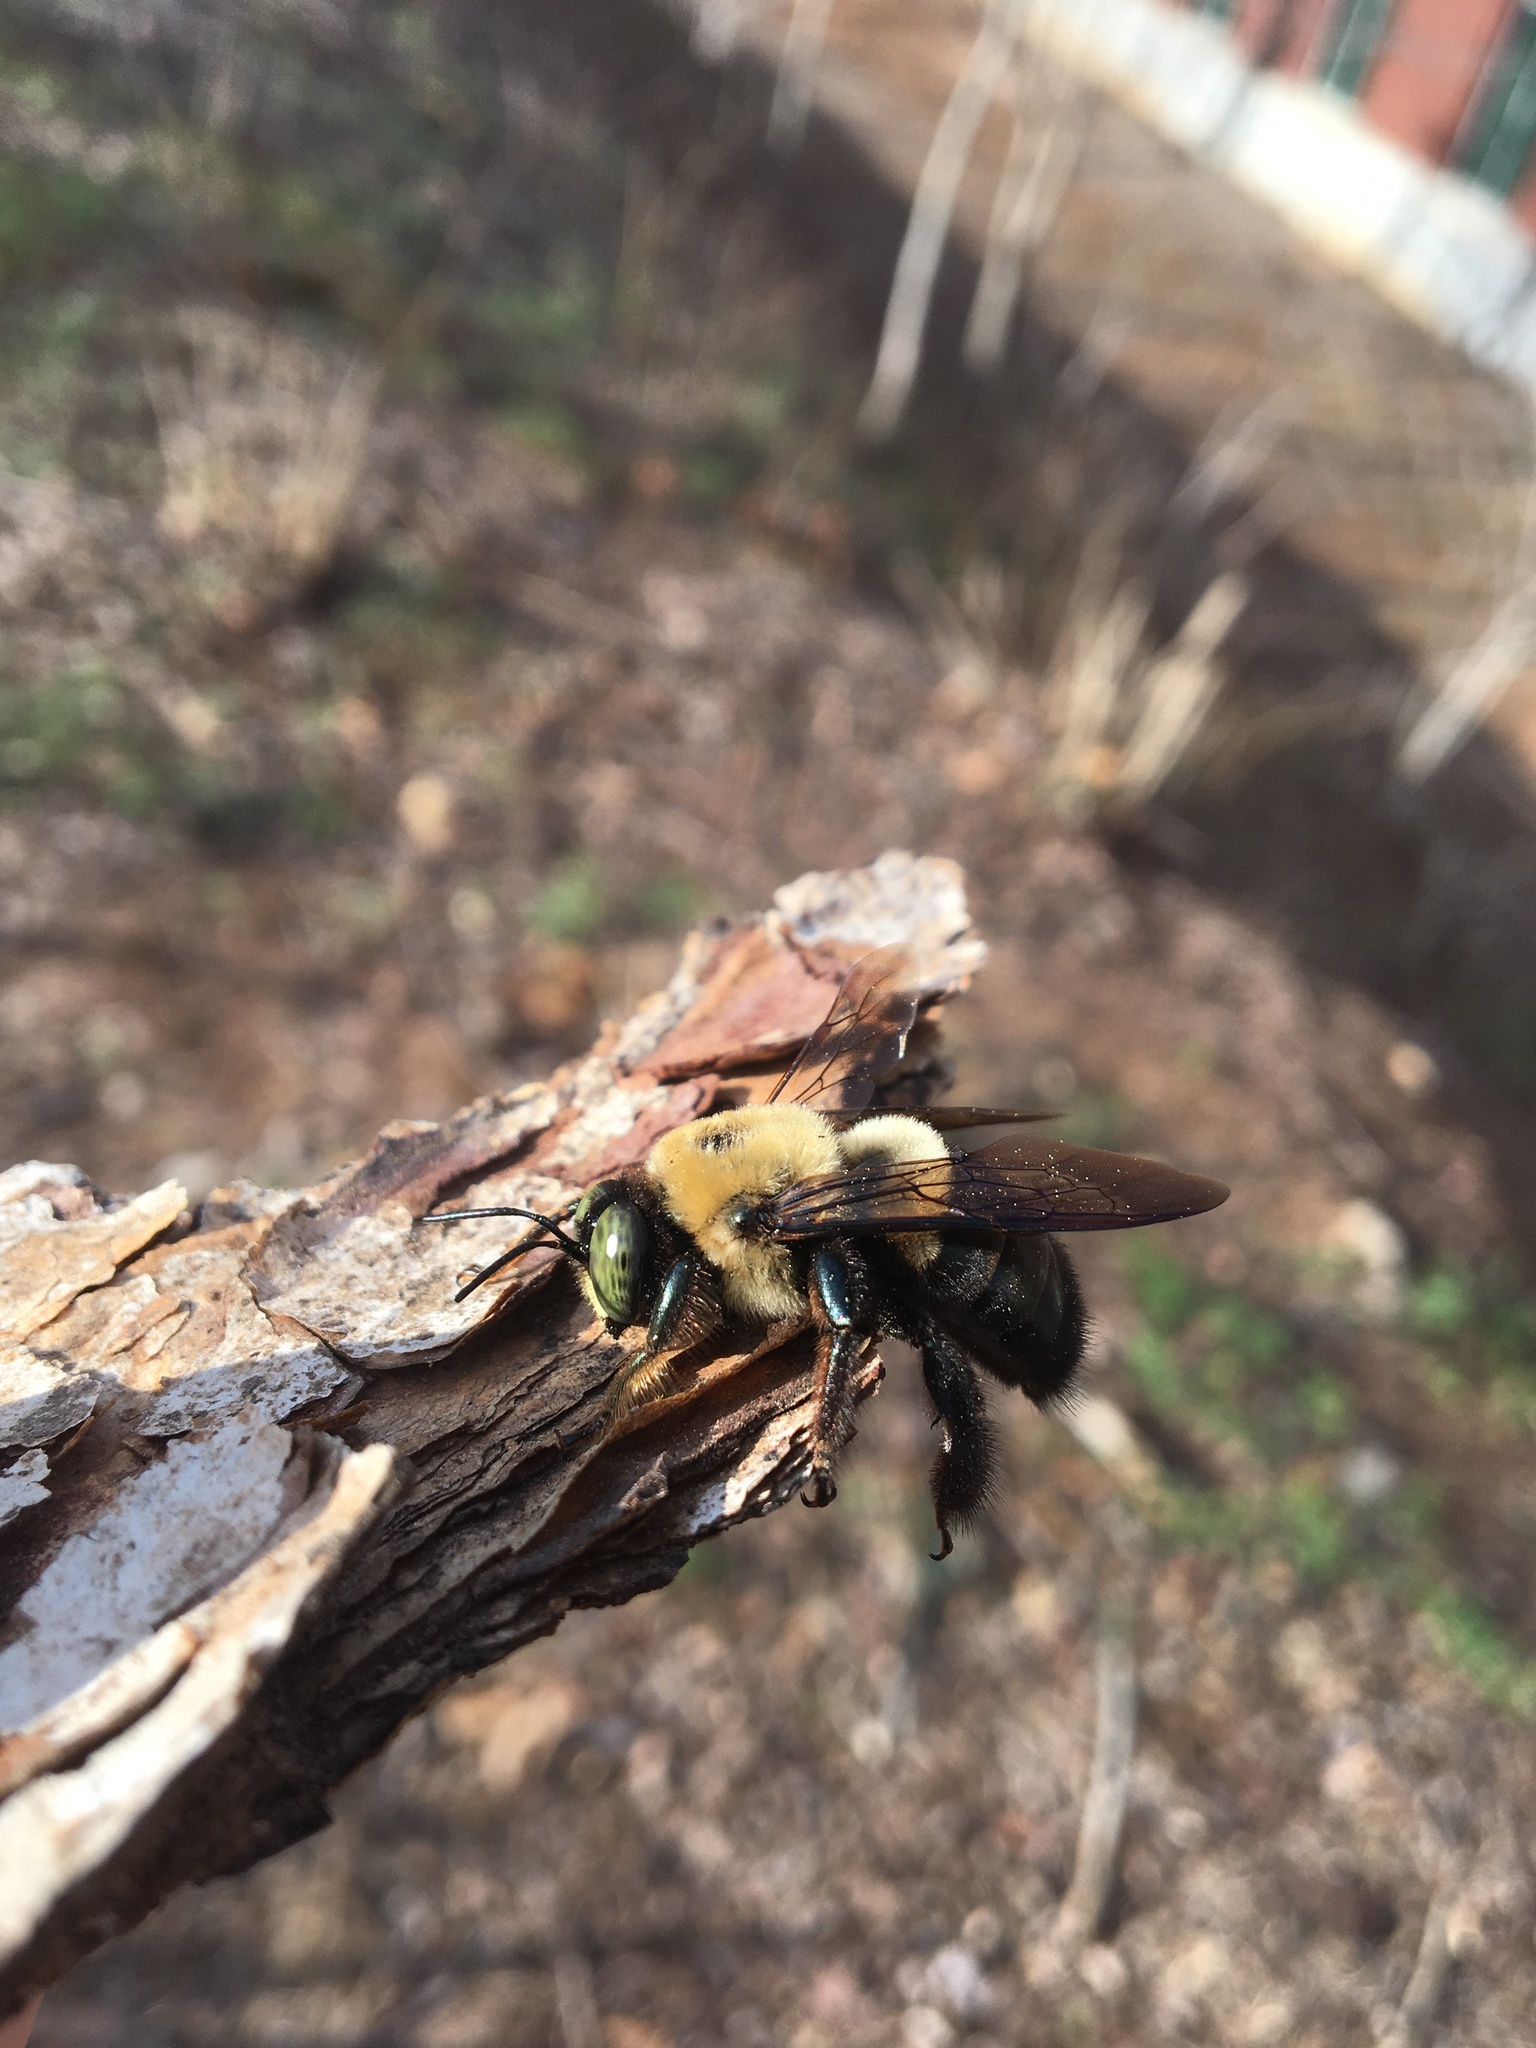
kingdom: Animalia
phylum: Arthropoda
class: Insecta
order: Hymenoptera
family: Apidae
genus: Xylocopa
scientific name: Xylocopa virginica
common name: Carpenter bee
